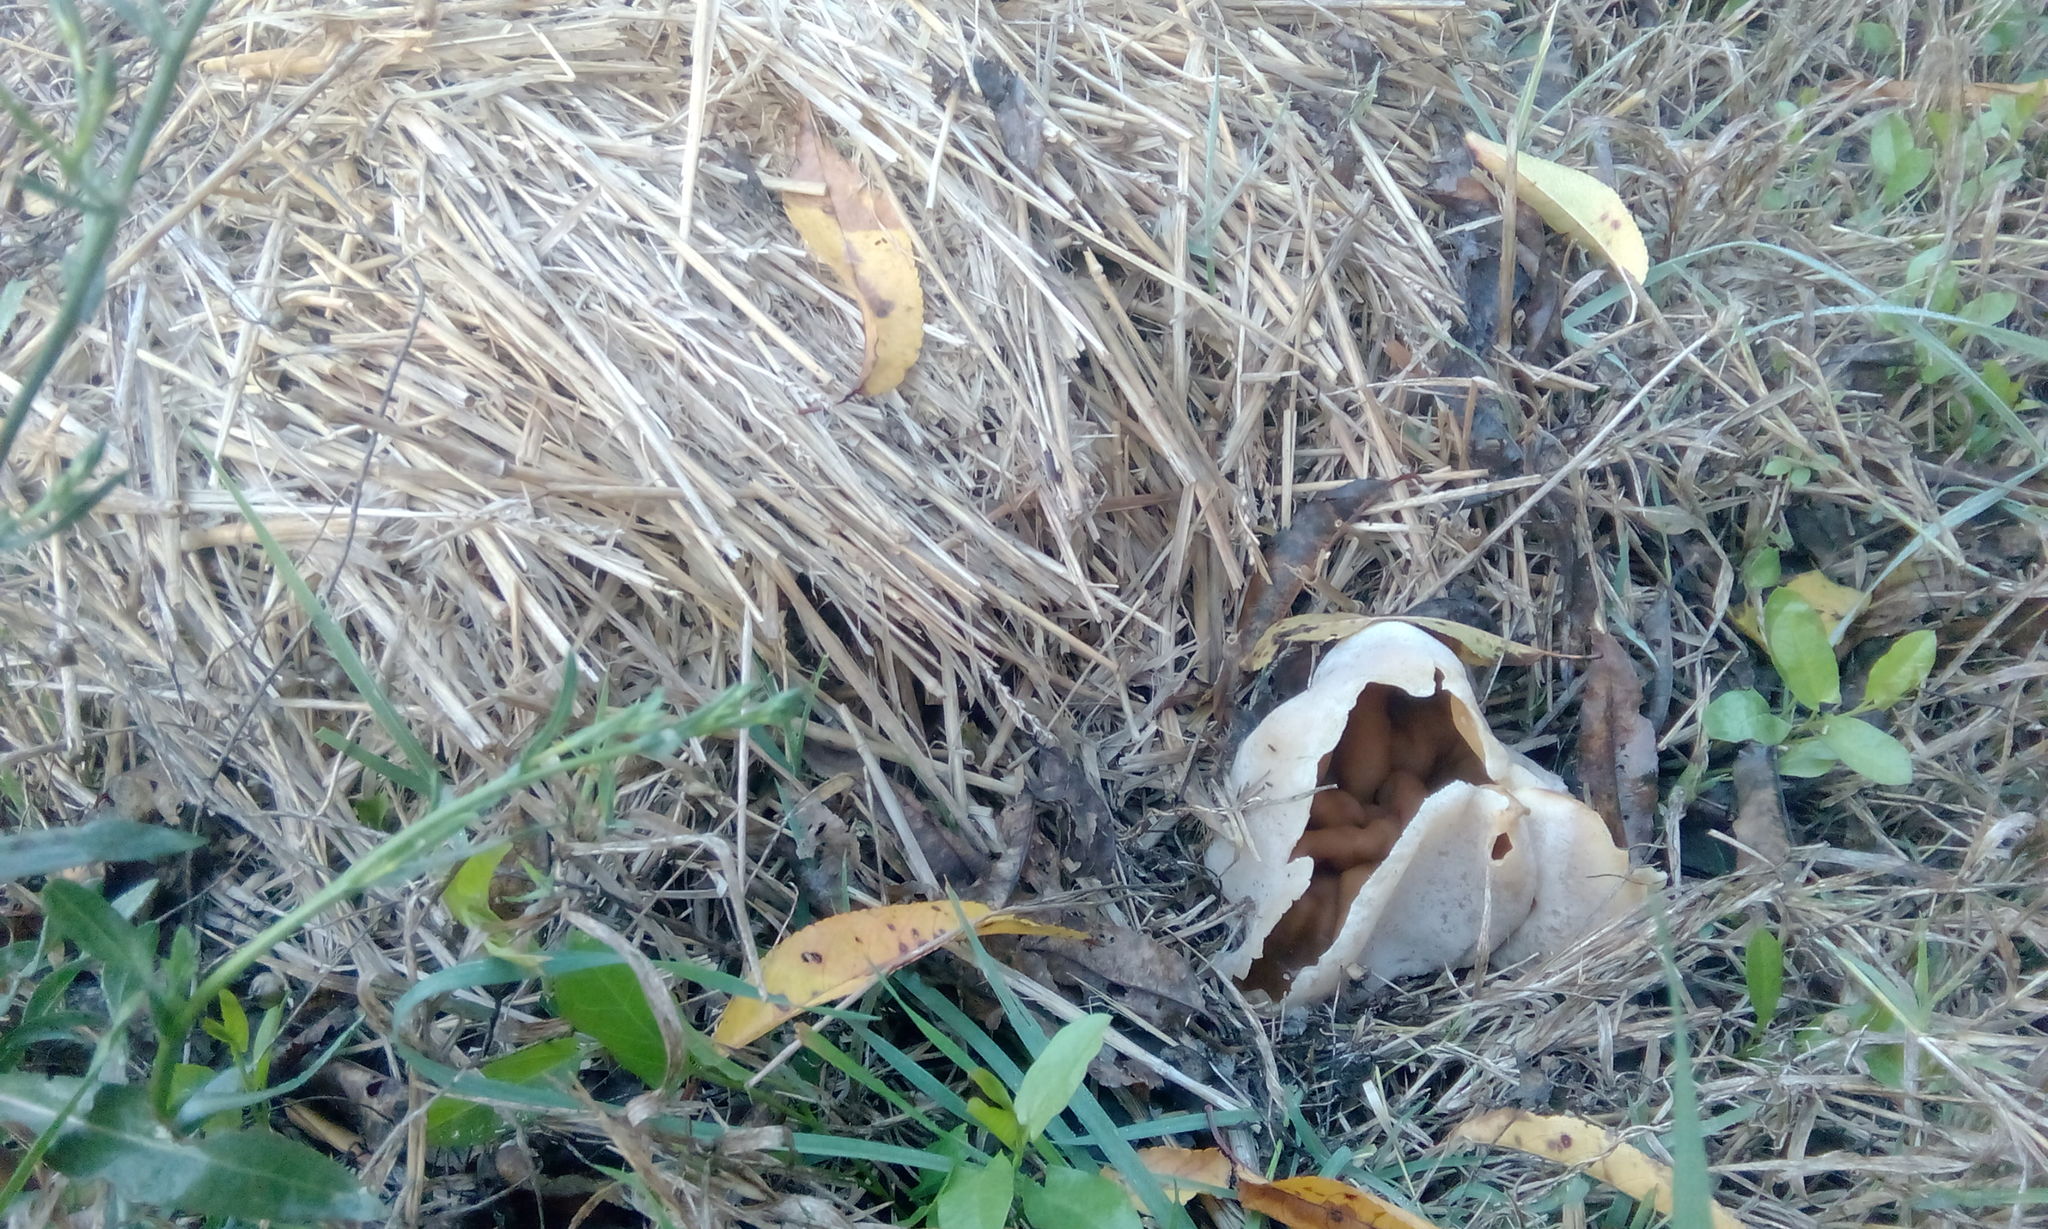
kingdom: Fungi
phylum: Ascomycota
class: Pezizomycetes
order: Pezizales
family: Pezizaceae
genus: Peziza
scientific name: Peziza varia
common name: Layered cup
